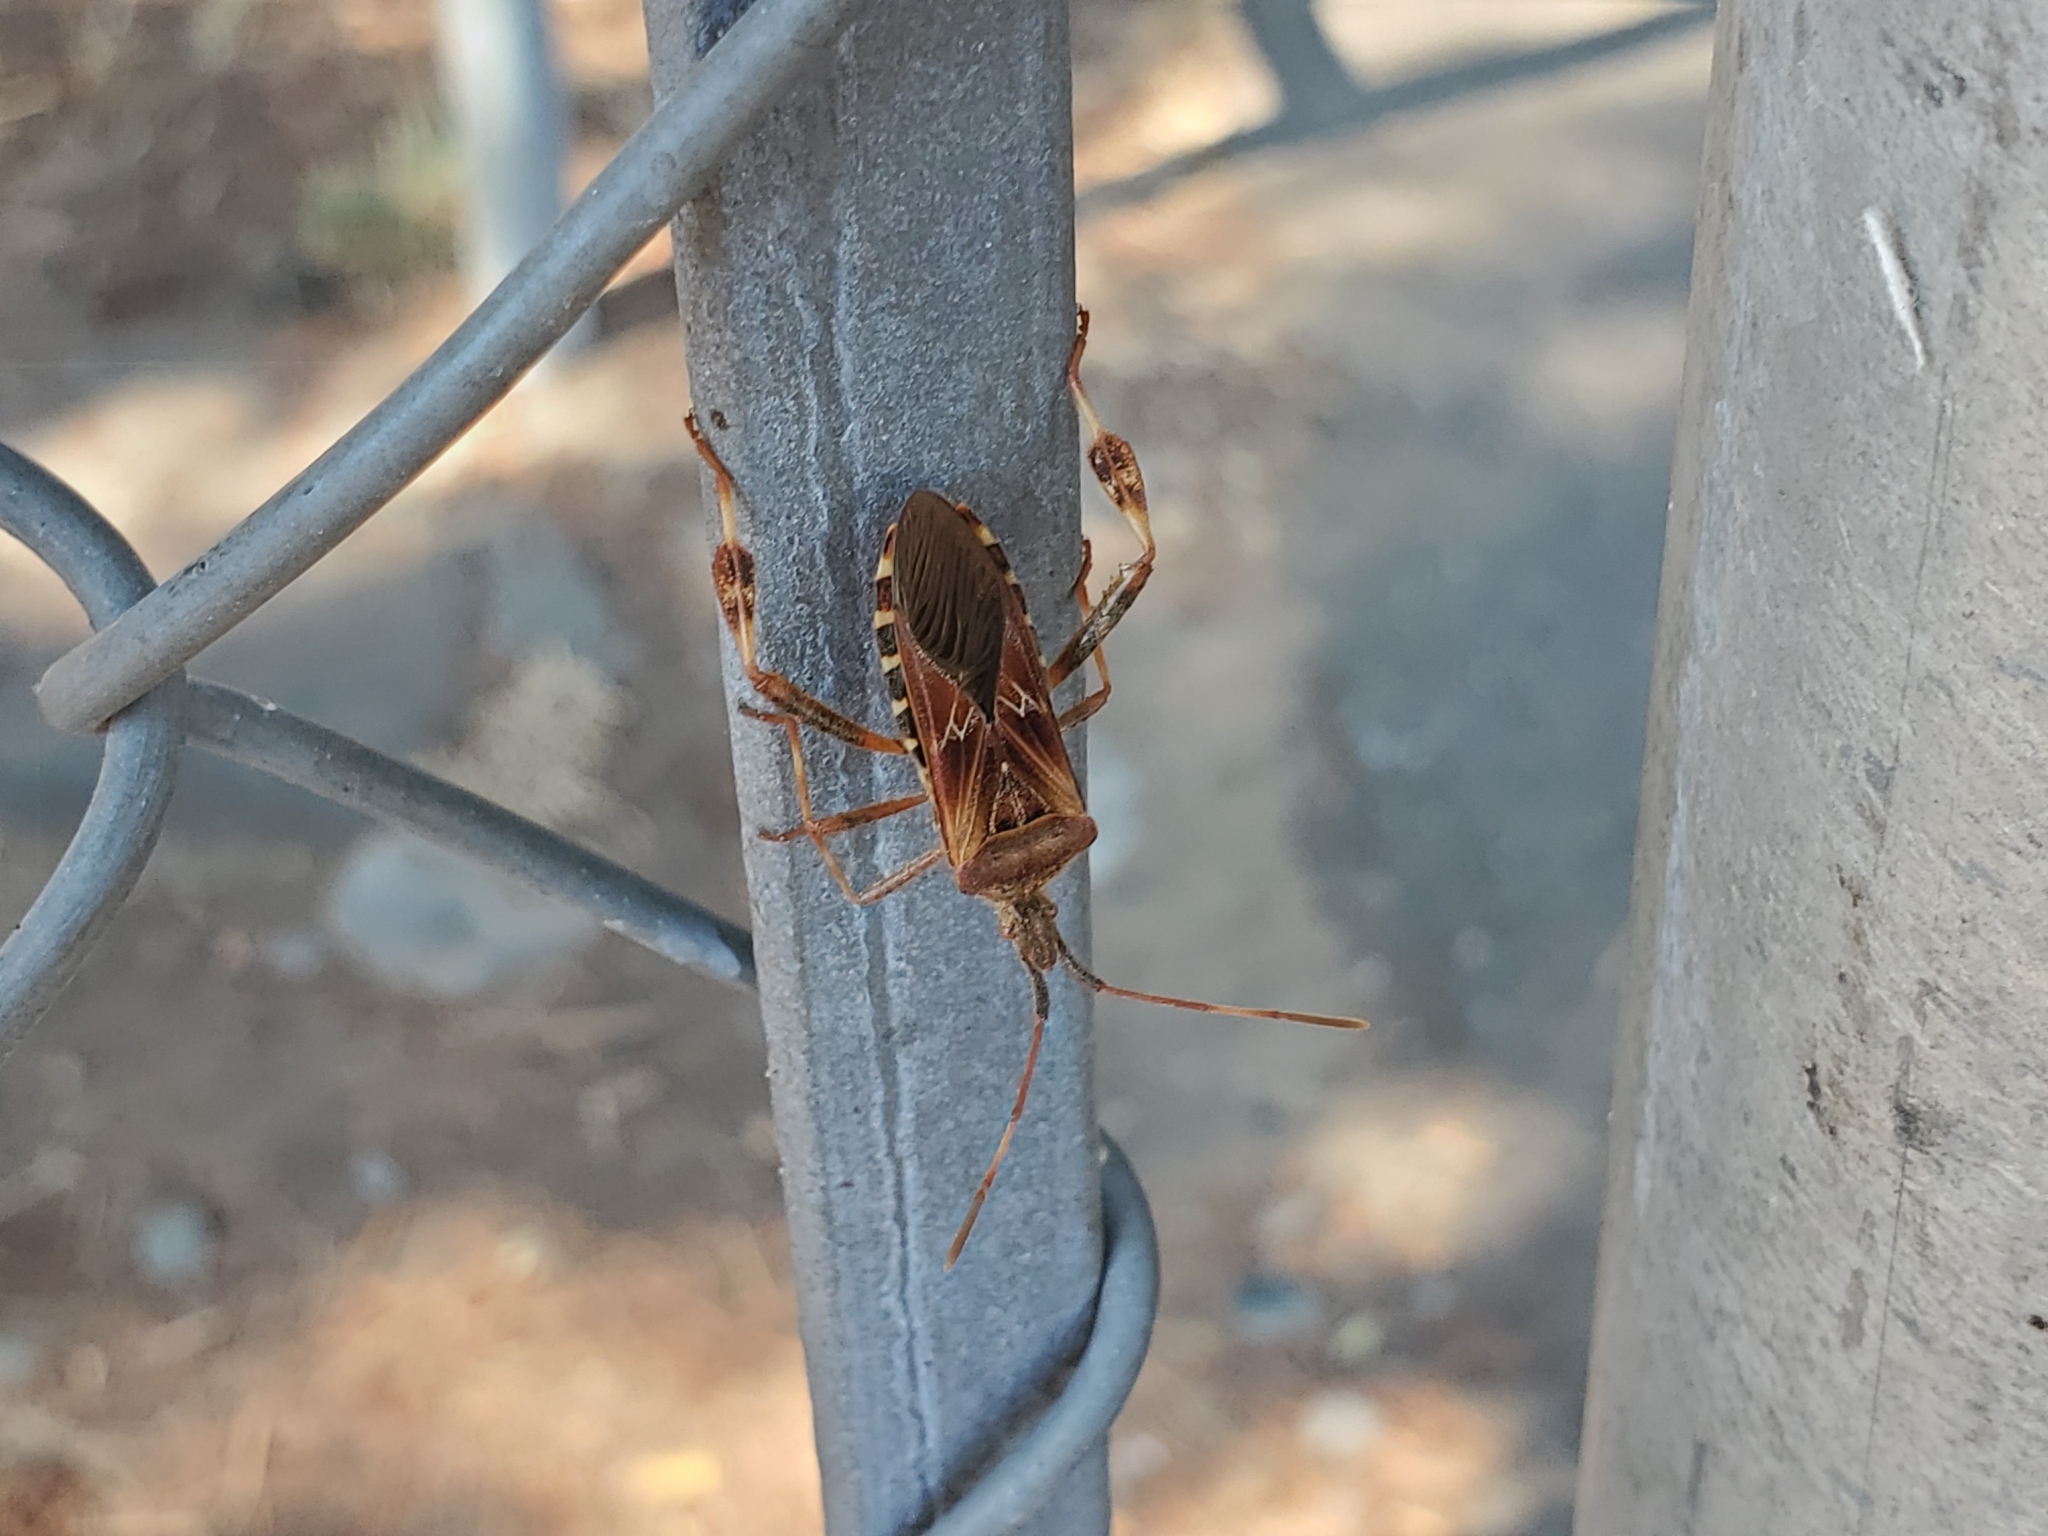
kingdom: Animalia
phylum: Arthropoda
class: Insecta
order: Hemiptera
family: Coreidae
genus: Leptoglossus
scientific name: Leptoglossus occidentalis
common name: Western conifer-seed bug
